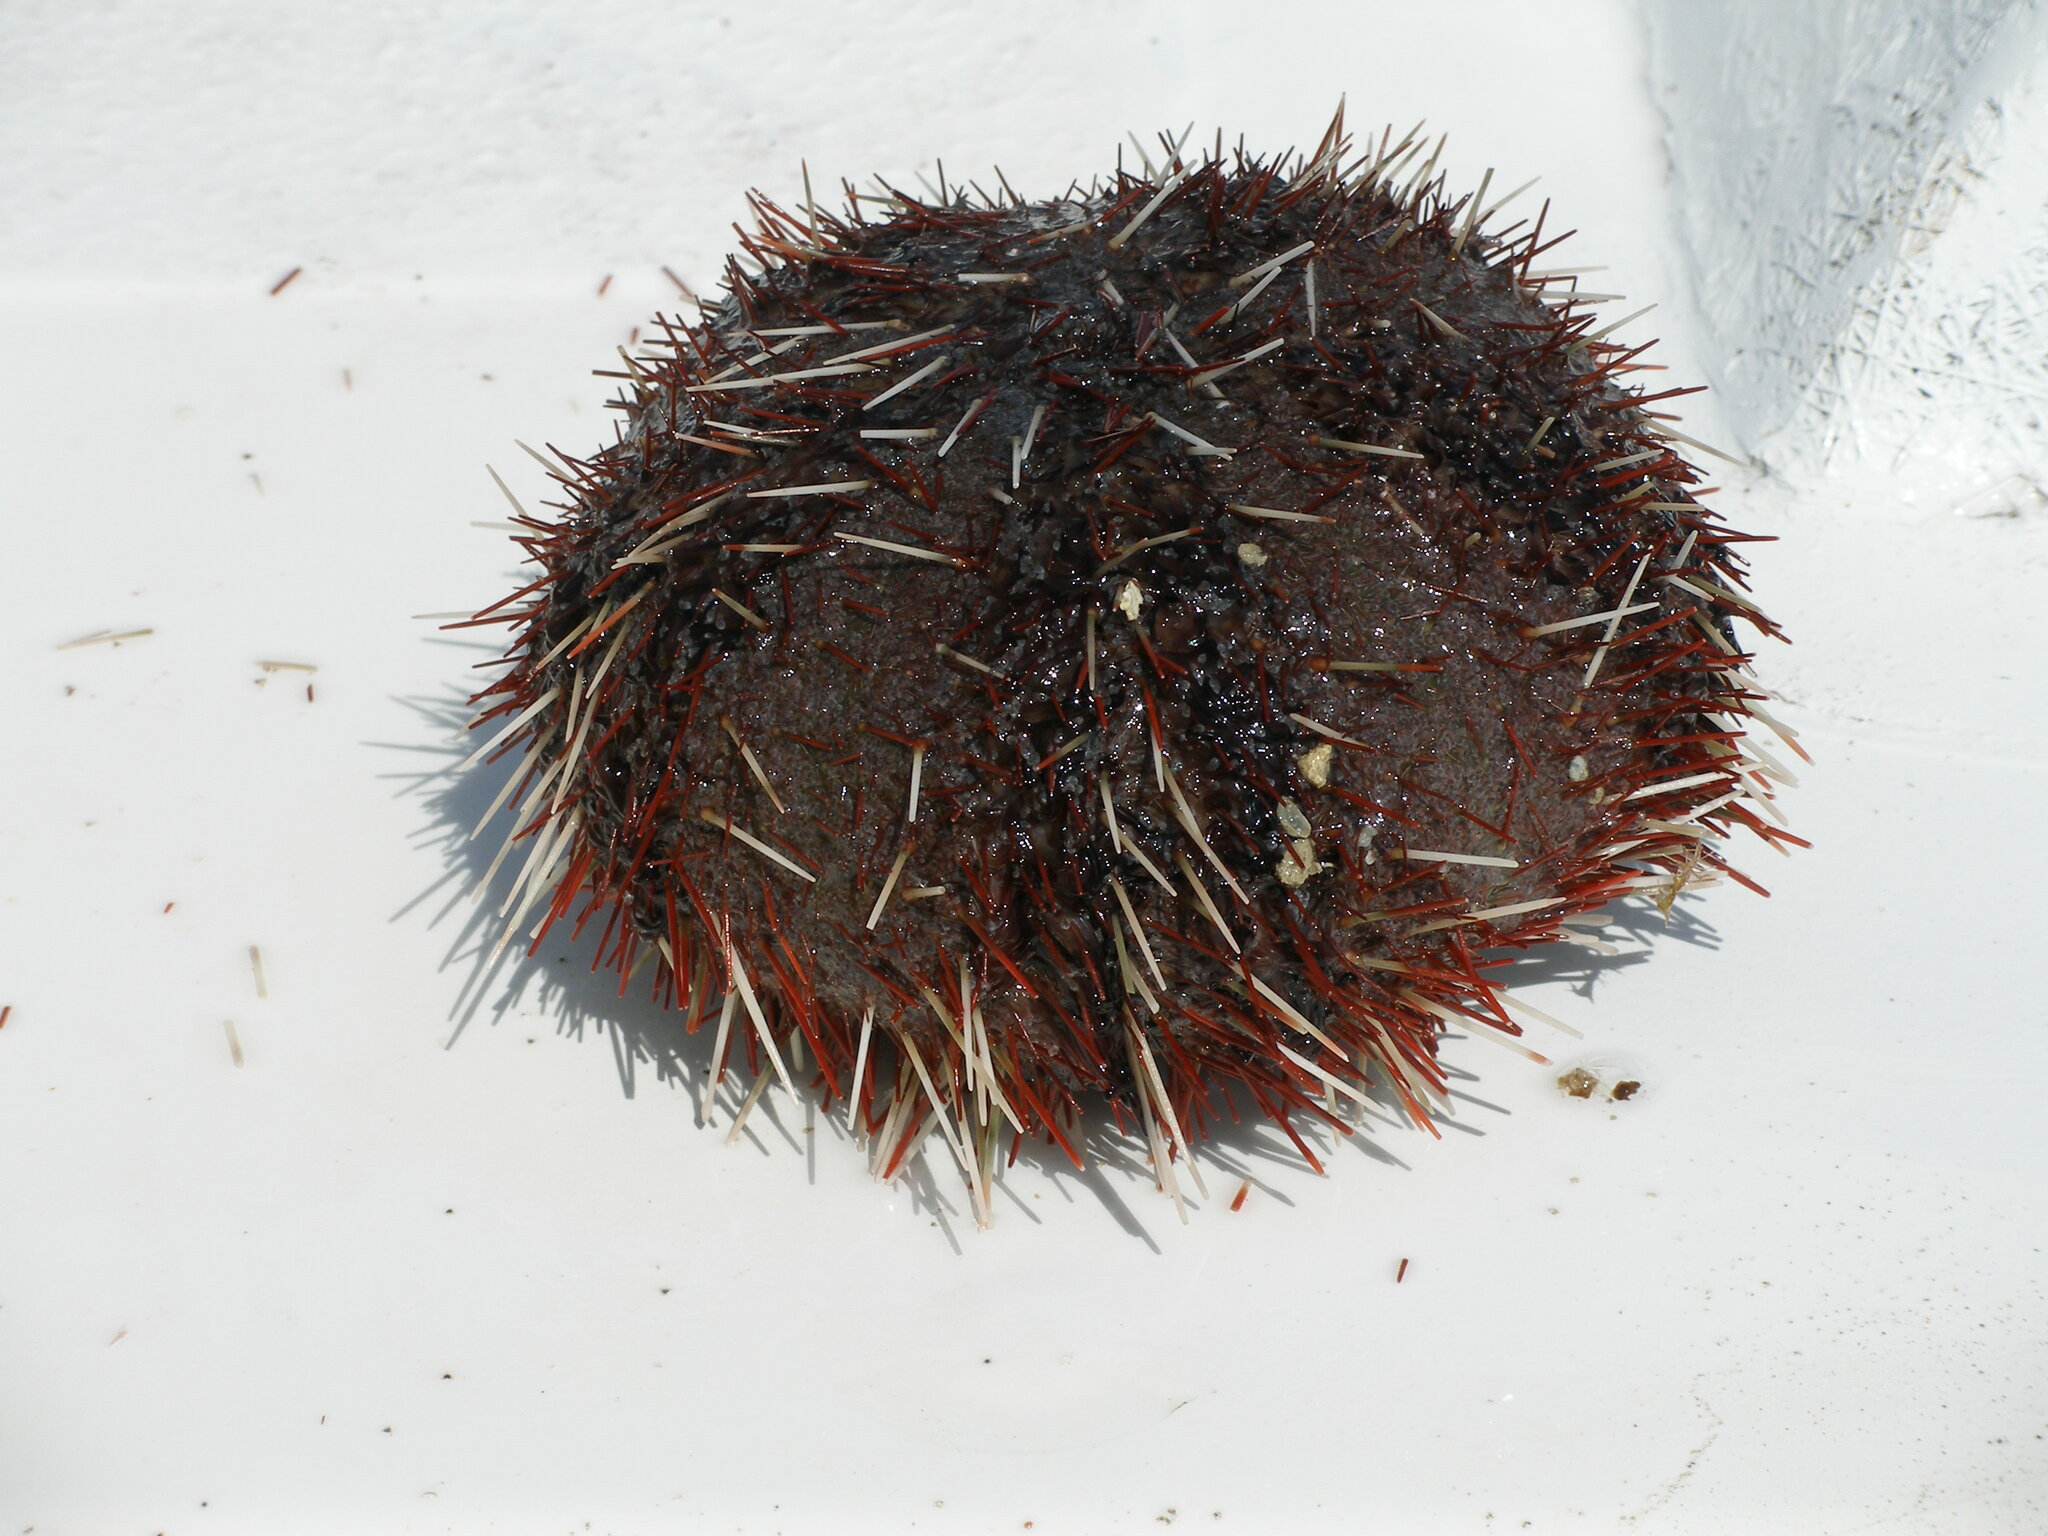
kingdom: Animalia
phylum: Echinodermata
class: Echinoidea
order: Camarodonta
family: Toxopneustidae
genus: Tripneustes
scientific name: Tripneustes gratilla
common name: Bischofsmützenseeigel
